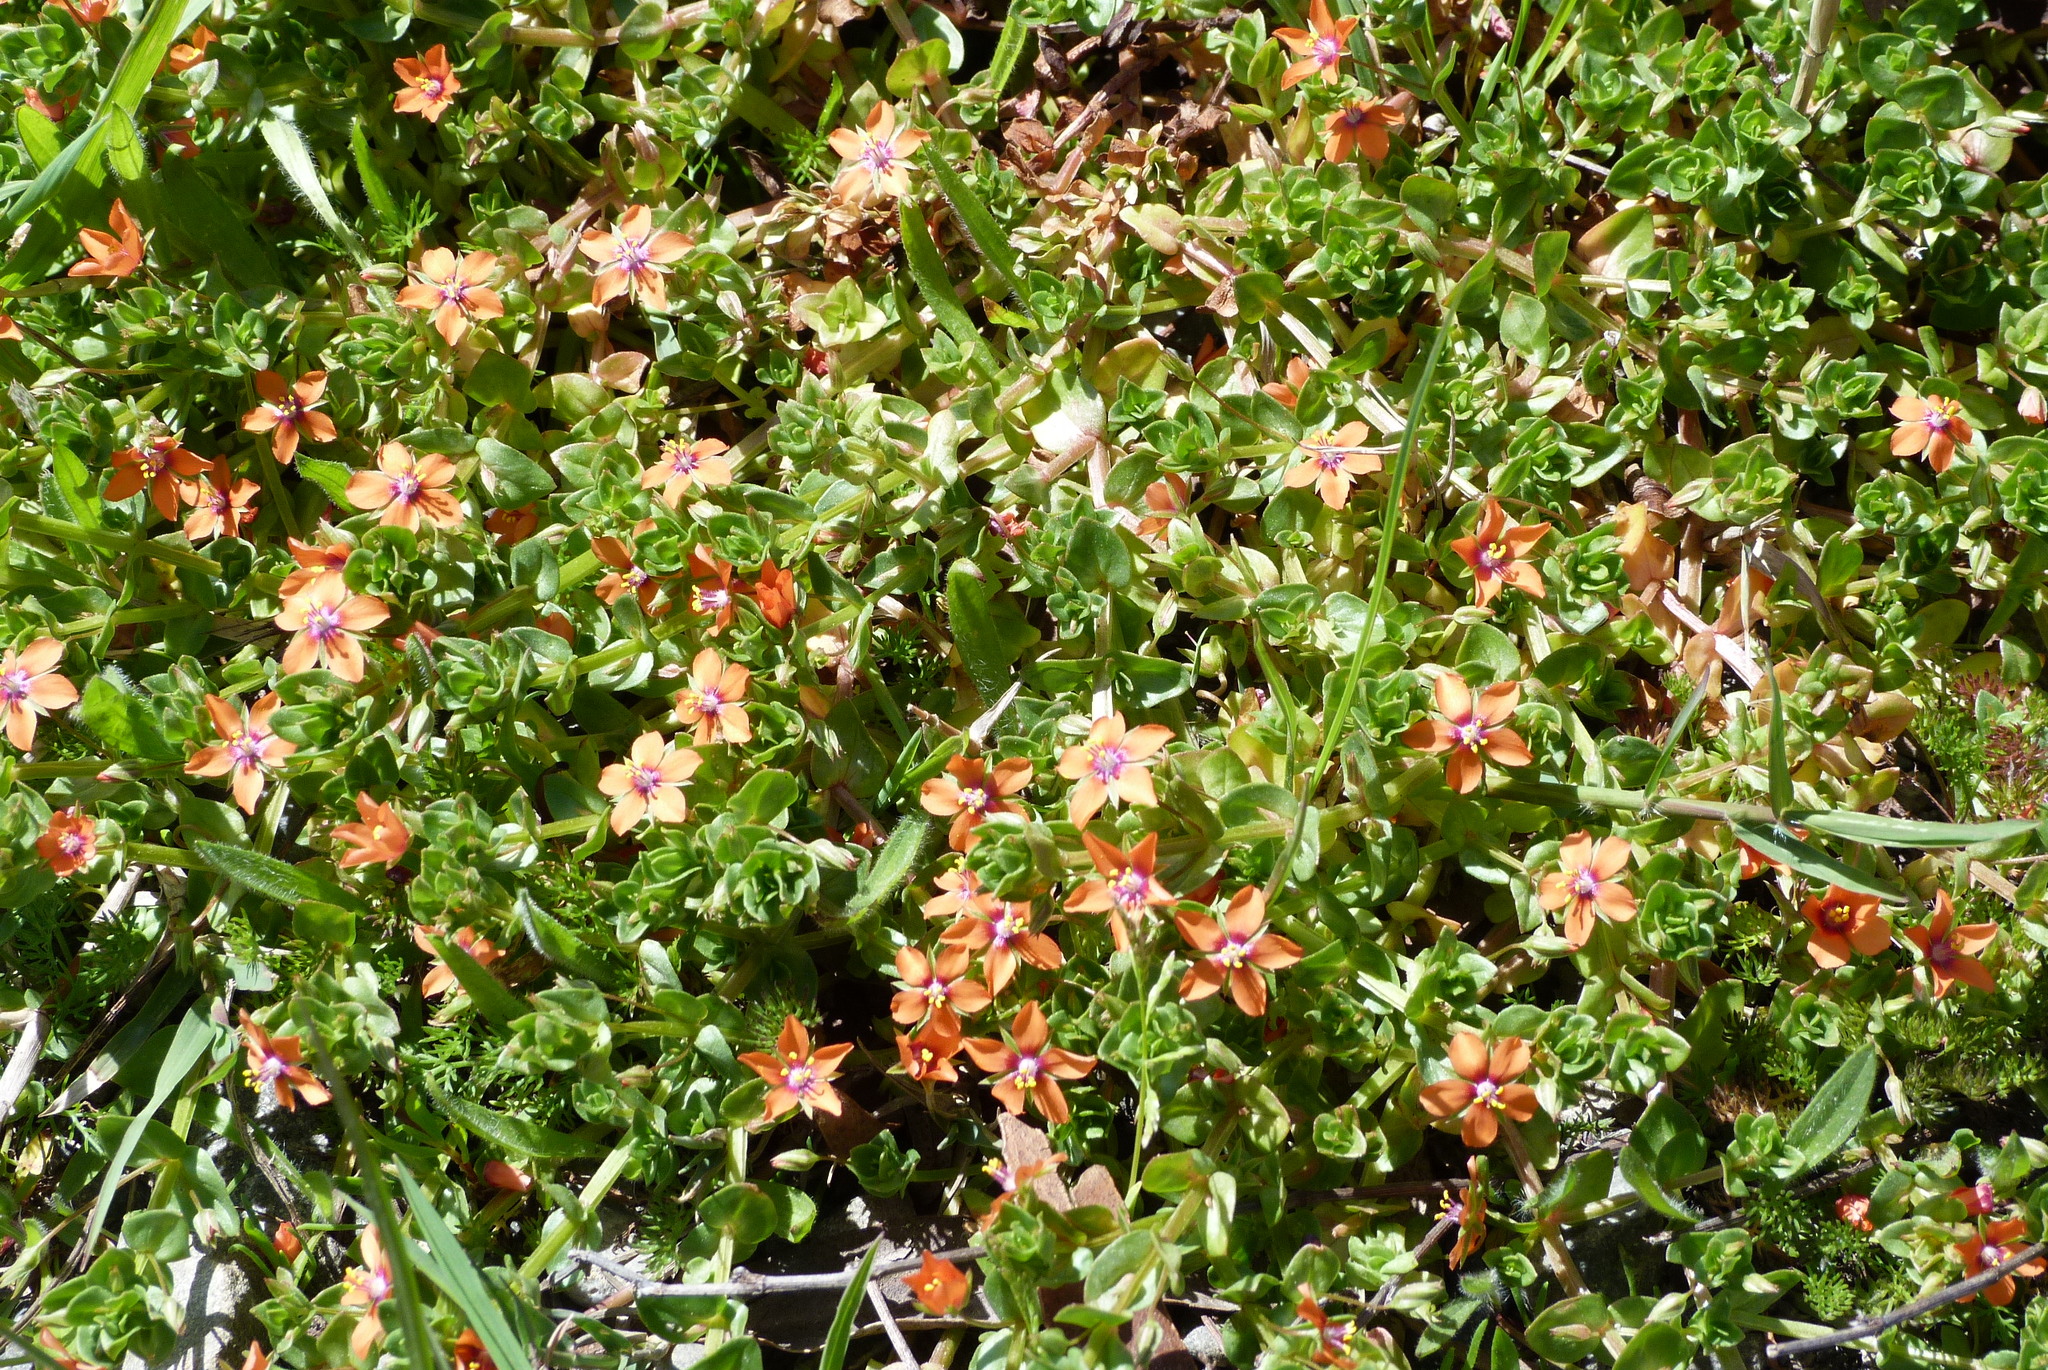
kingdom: Plantae
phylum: Tracheophyta
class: Magnoliopsida
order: Ericales
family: Primulaceae
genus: Lysimachia
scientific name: Lysimachia arvensis
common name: Scarlet pimpernel
